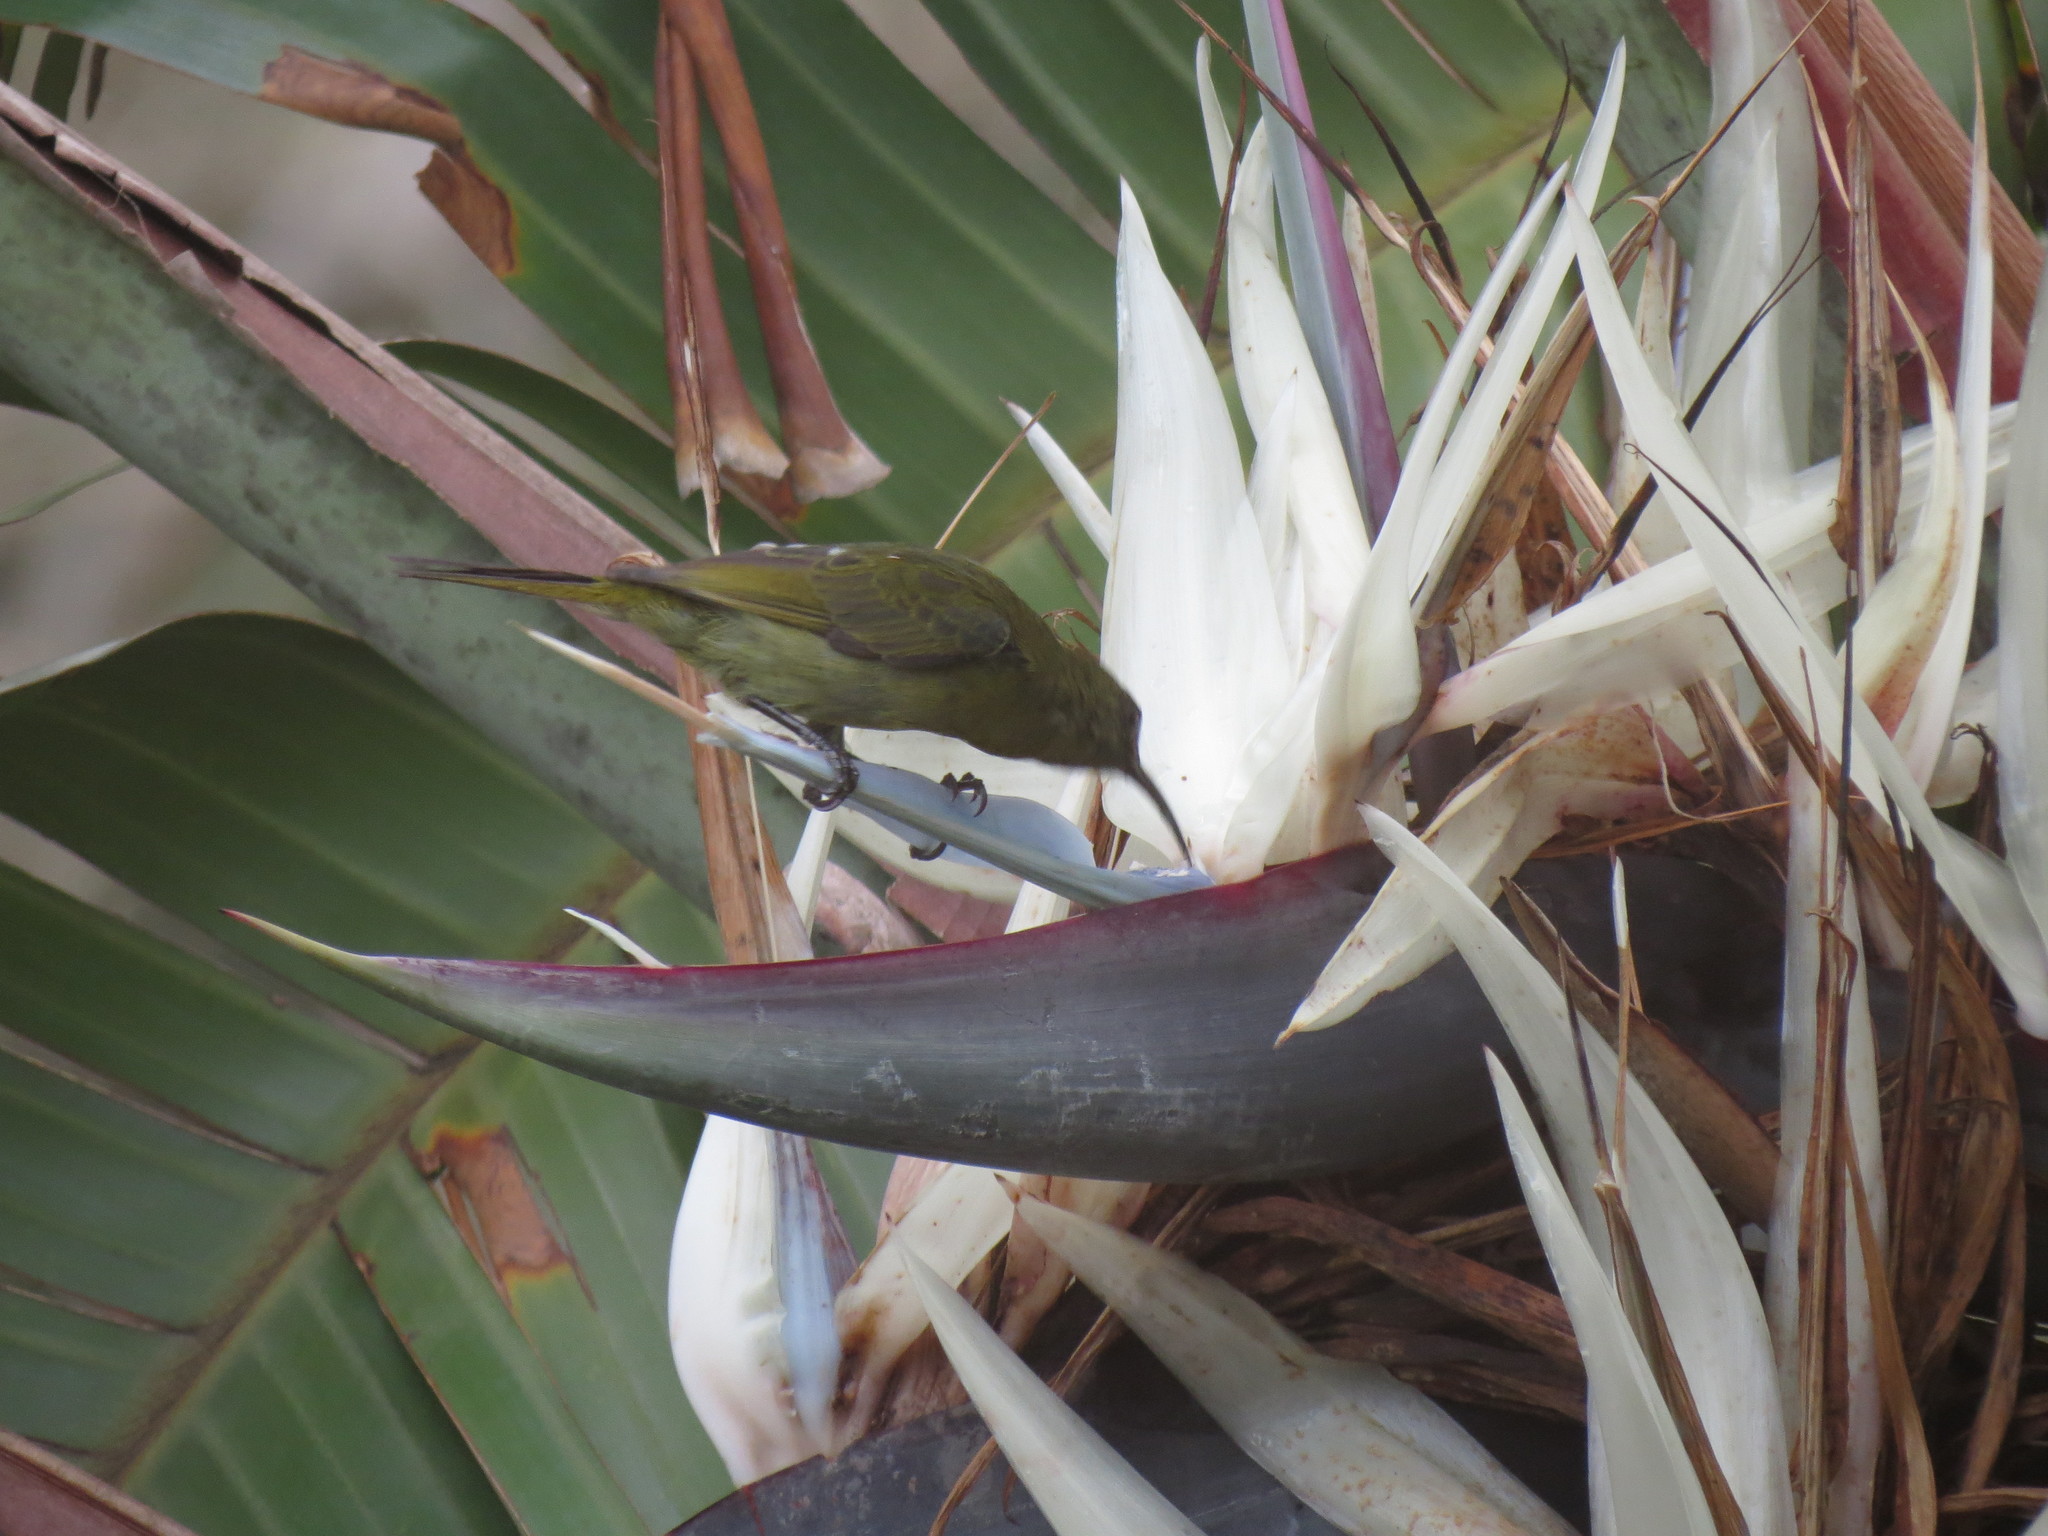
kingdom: Animalia
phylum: Chordata
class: Aves
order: Passeriformes
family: Nectariniidae
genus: Cyanomitra
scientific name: Cyanomitra olivacea
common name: Olive sunbird
